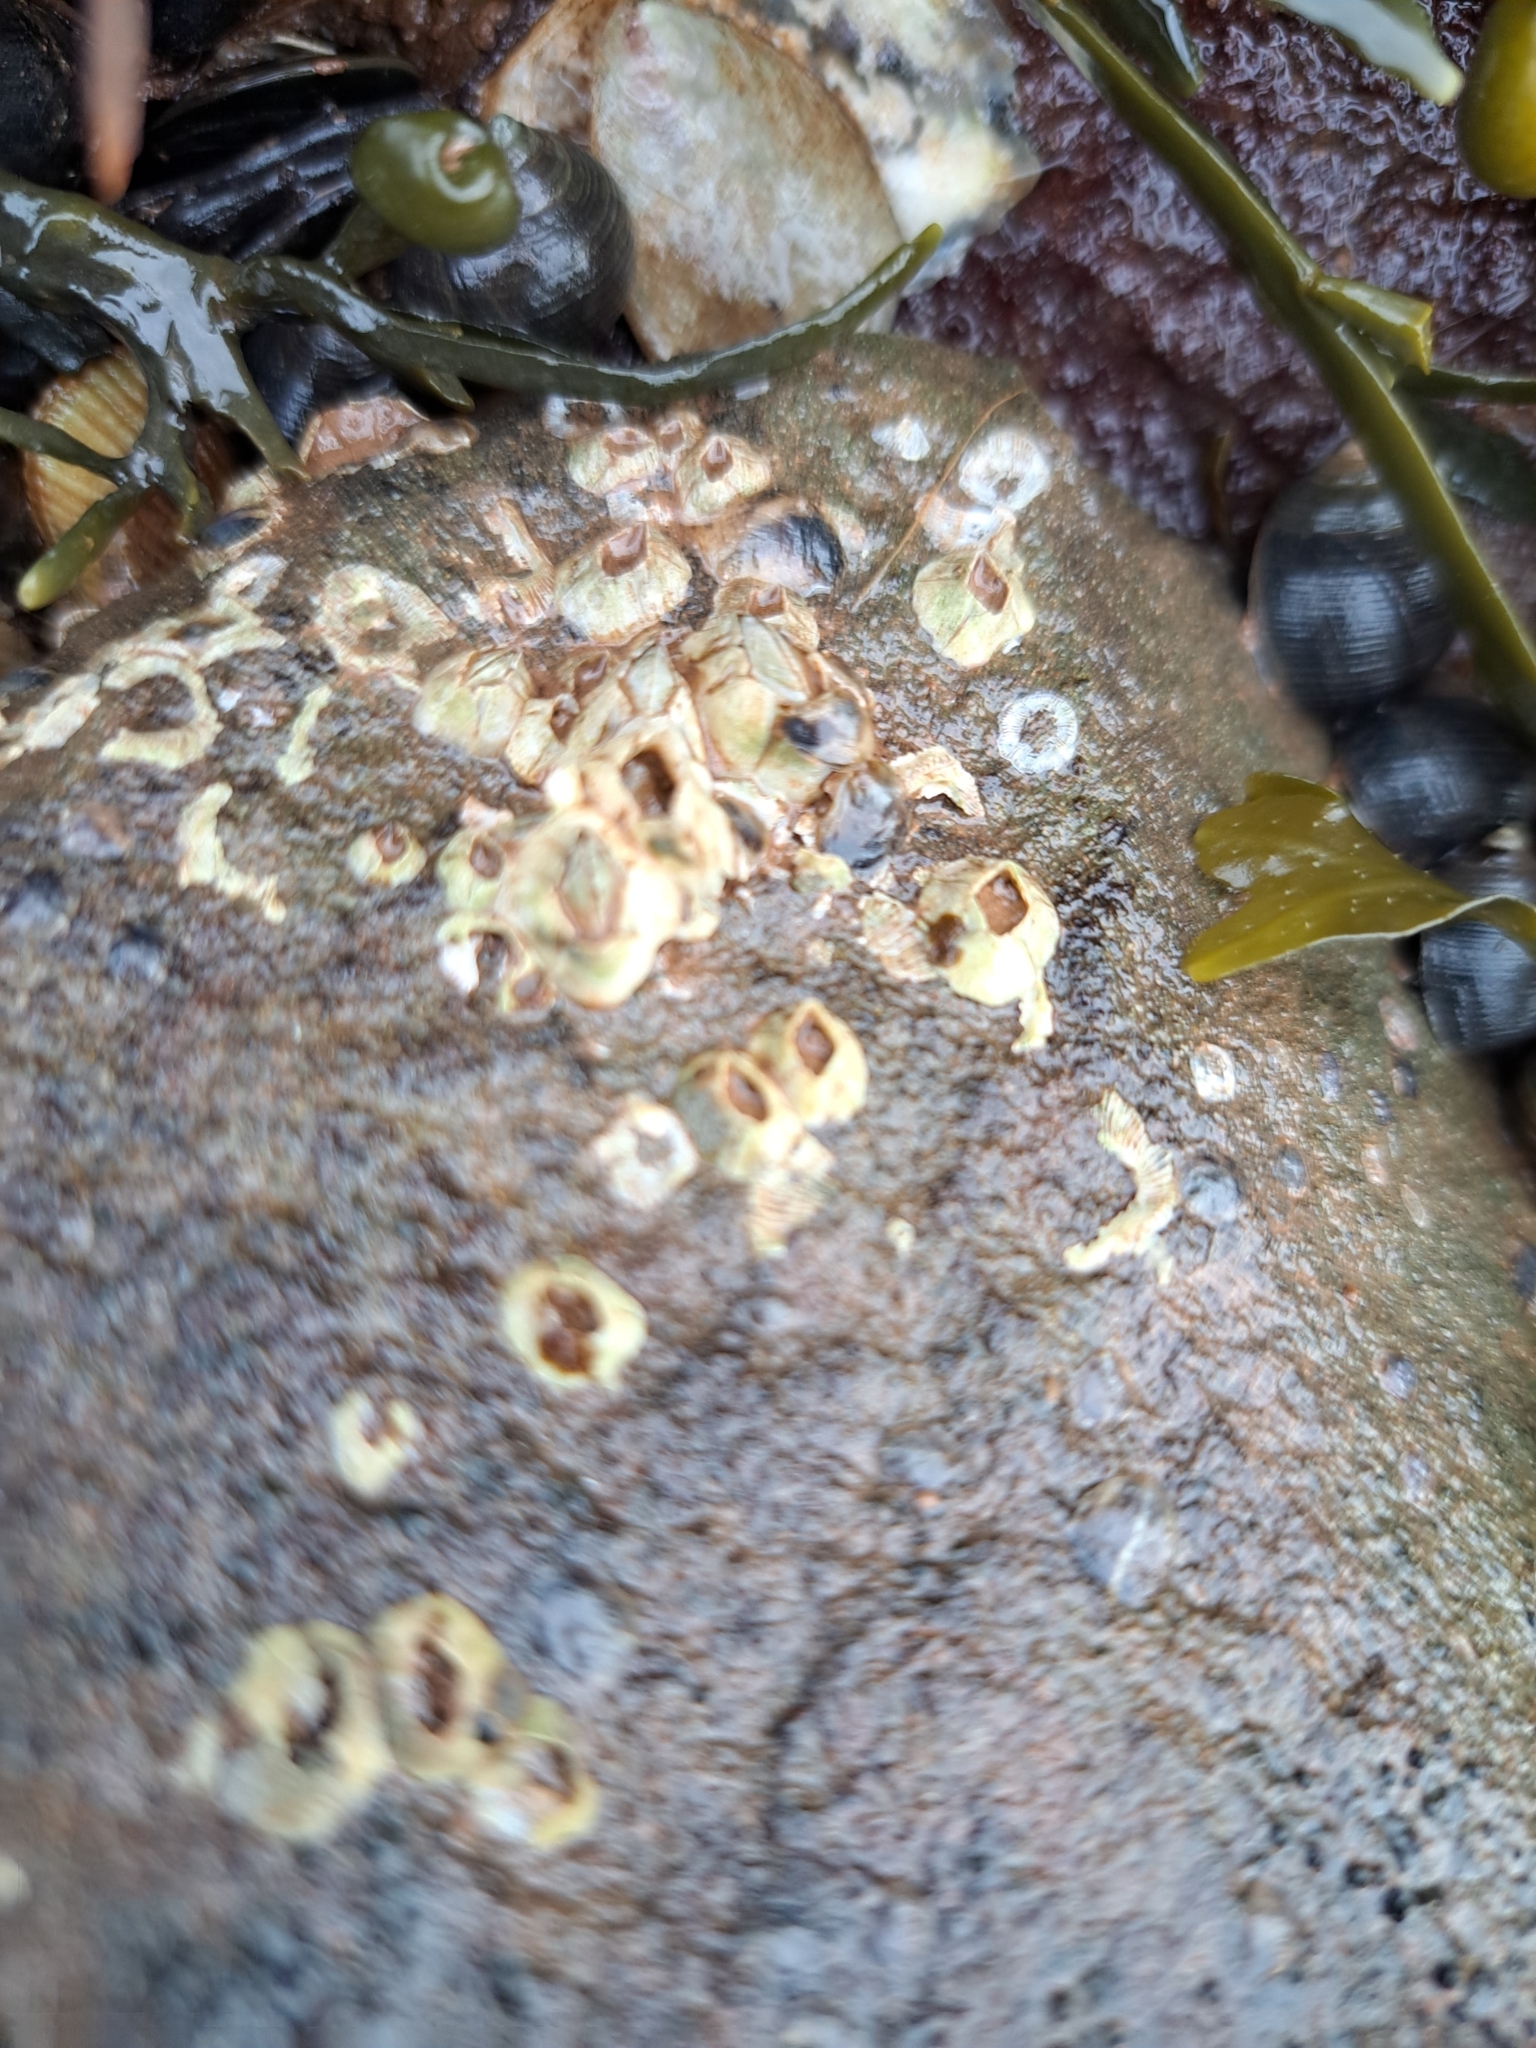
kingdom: Animalia
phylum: Arthropoda
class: Maxillopoda
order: Sessilia
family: Archaeobalanidae
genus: Semibalanus
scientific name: Semibalanus balanoides
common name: Acorn barnacle
